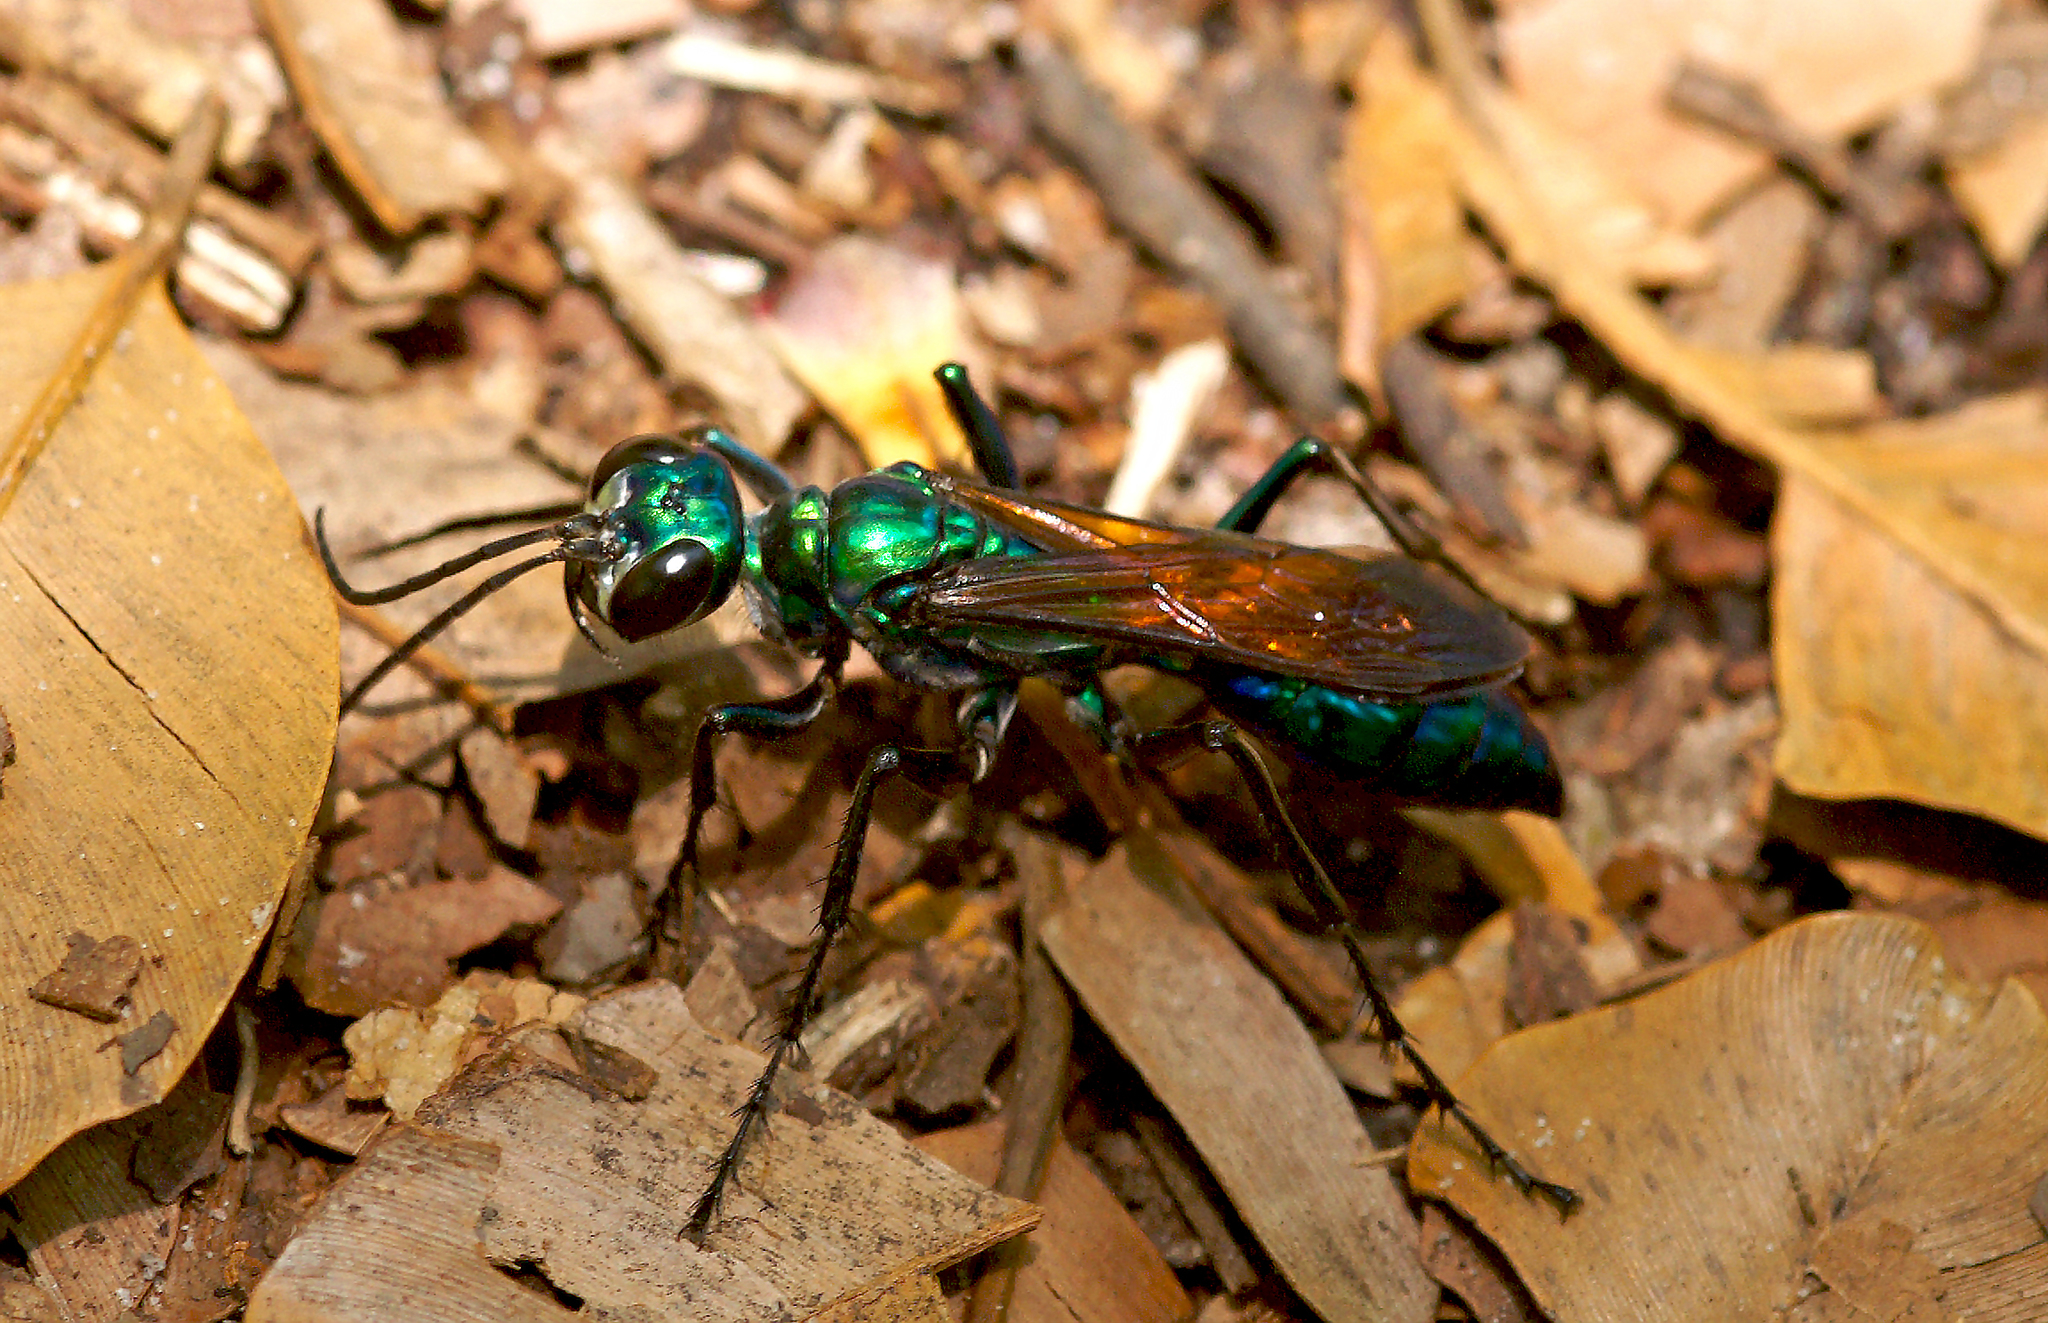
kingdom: Animalia
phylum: Arthropoda
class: Insecta
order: Hymenoptera
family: Sphecidae
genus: Chlorion
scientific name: Chlorion lobatum
